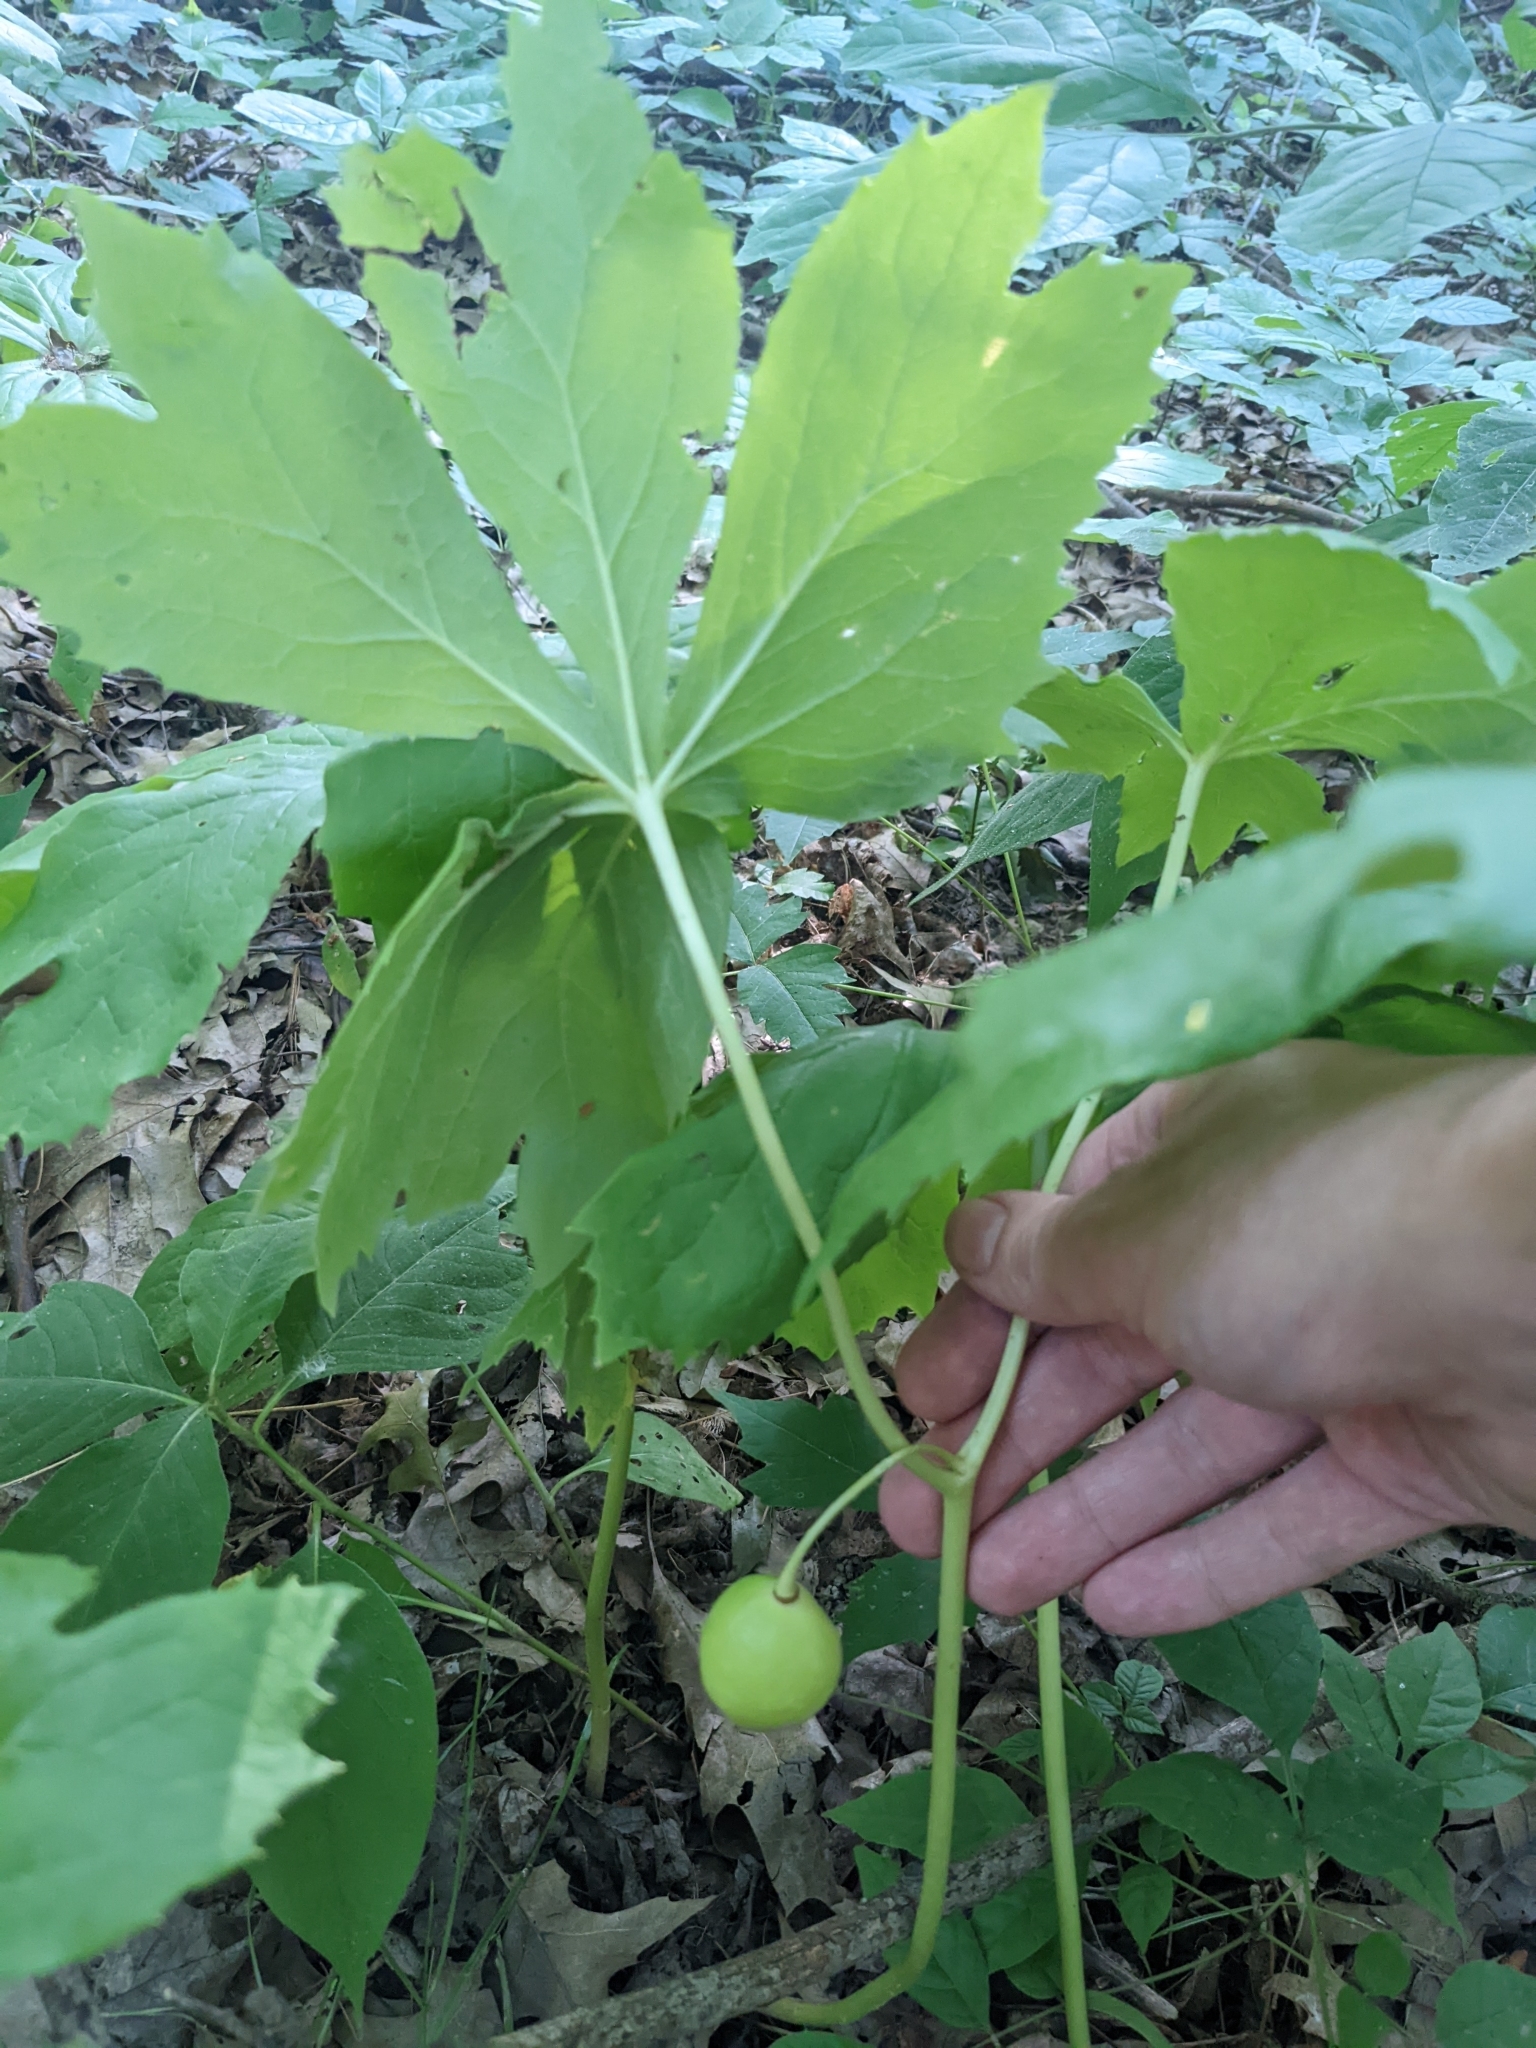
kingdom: Plantae
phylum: Tracheophyta
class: Magnoliopsida
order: Ranunculales
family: Berberidaceae
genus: Podophyllum
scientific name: Podophyllum peltatum
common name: Wild mandrake
